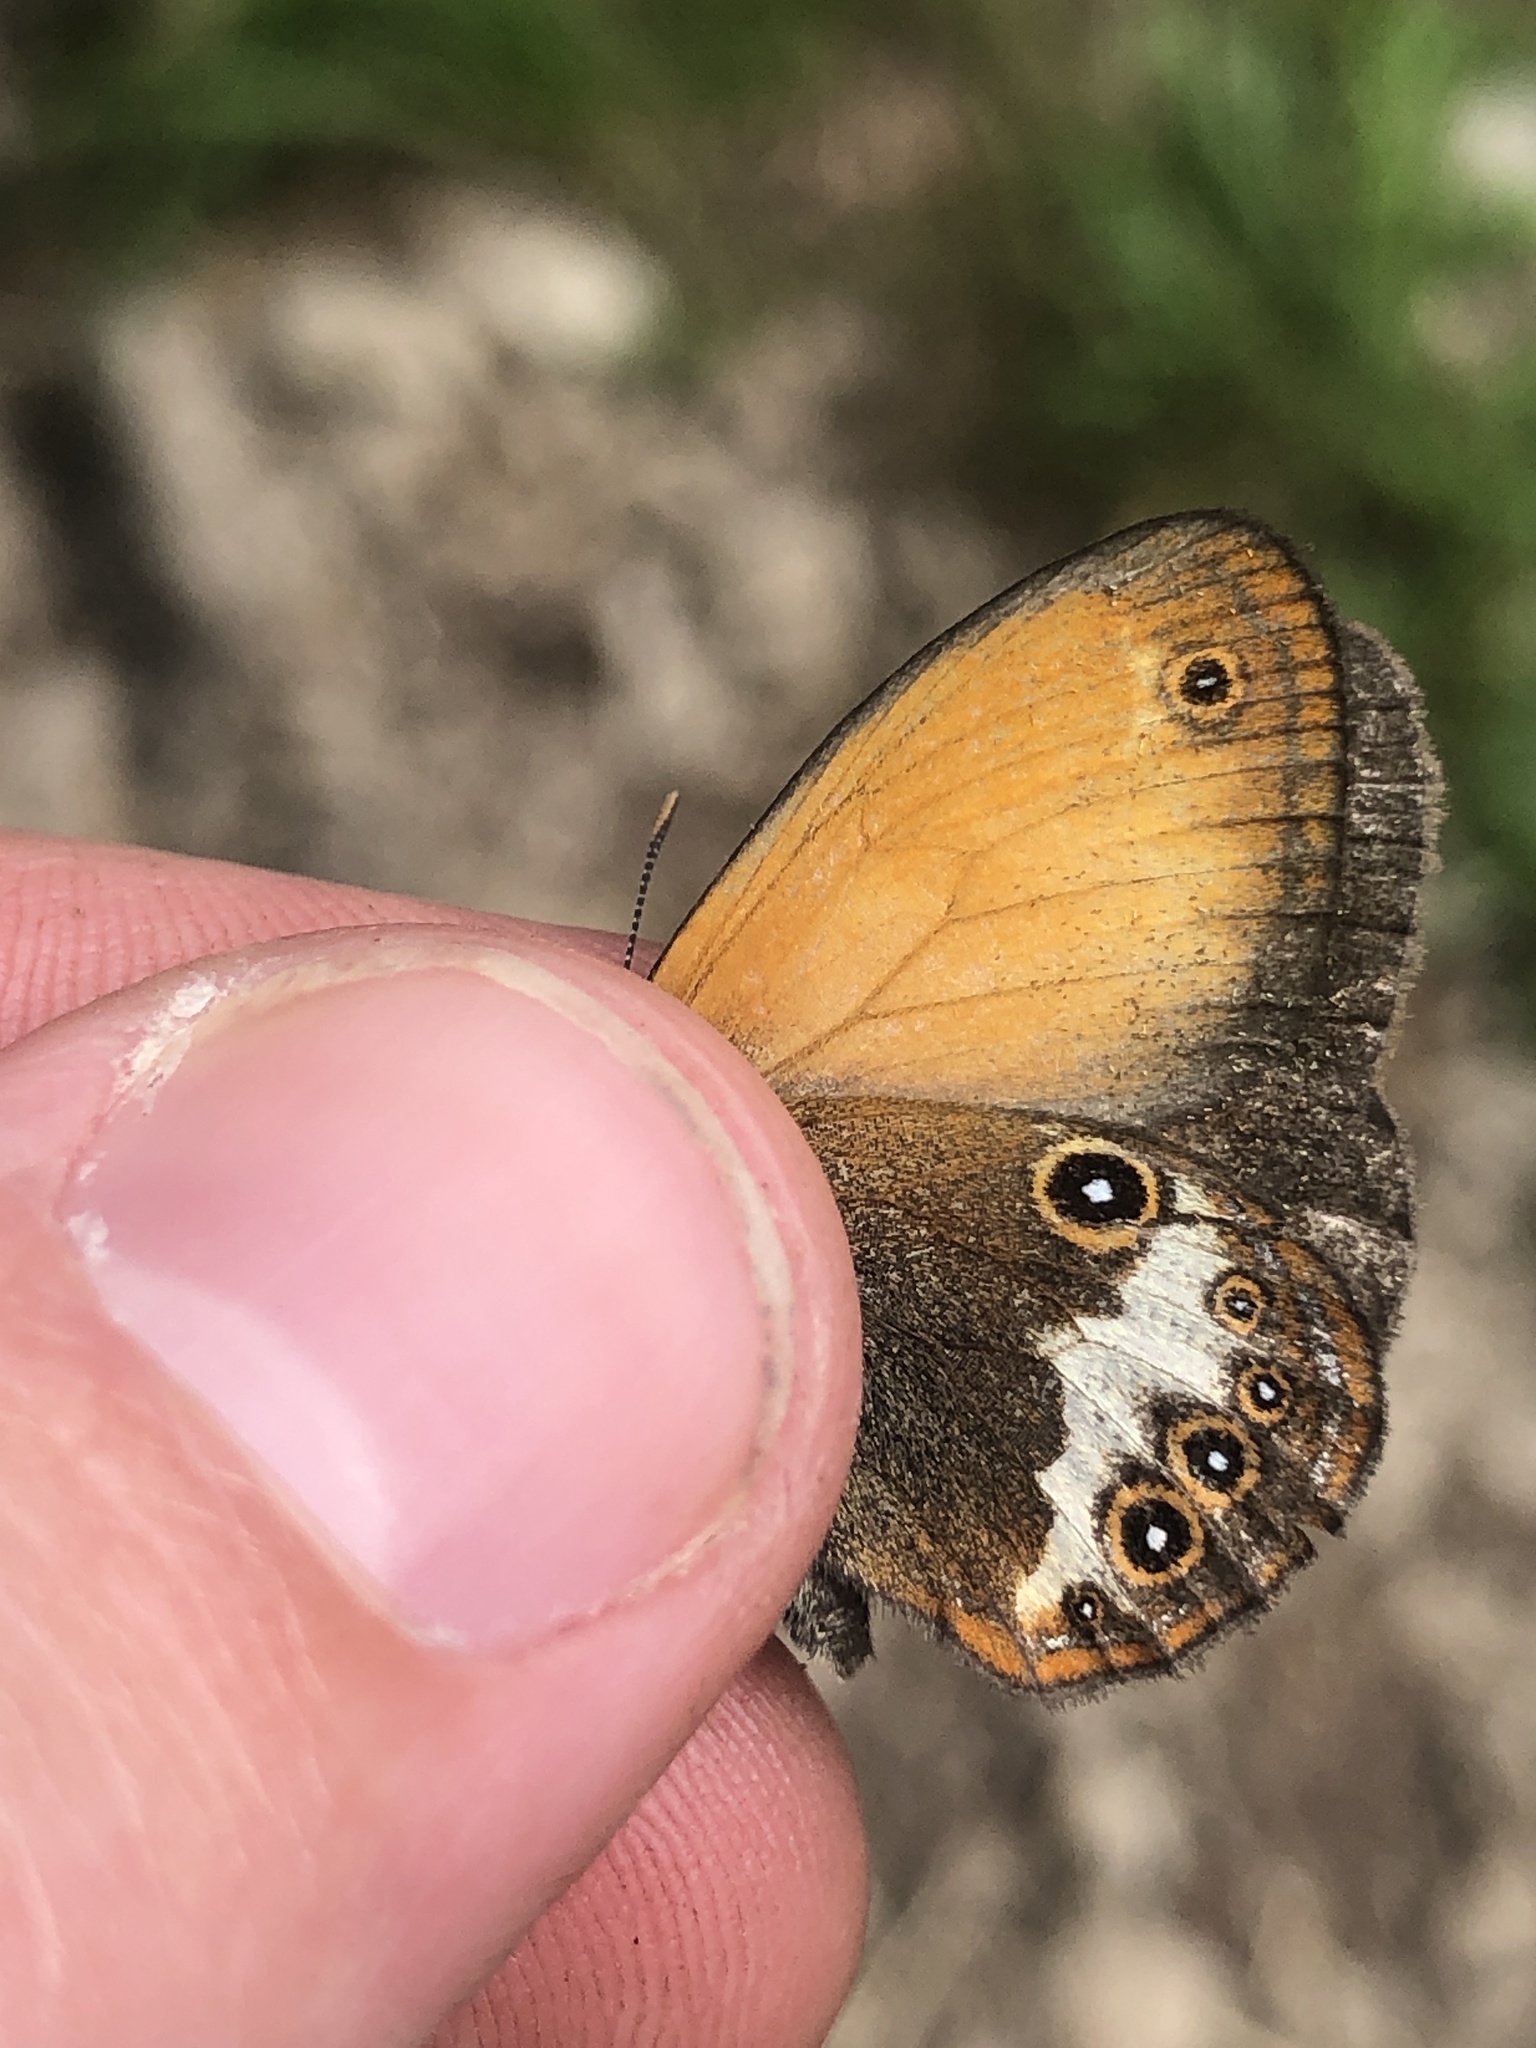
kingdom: Animalia
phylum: Arthropoda
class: Insecta
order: Lepidoptera
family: Nymphalidae
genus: Coenonympha
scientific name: Coenonympha arcania
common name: Pearly heath
